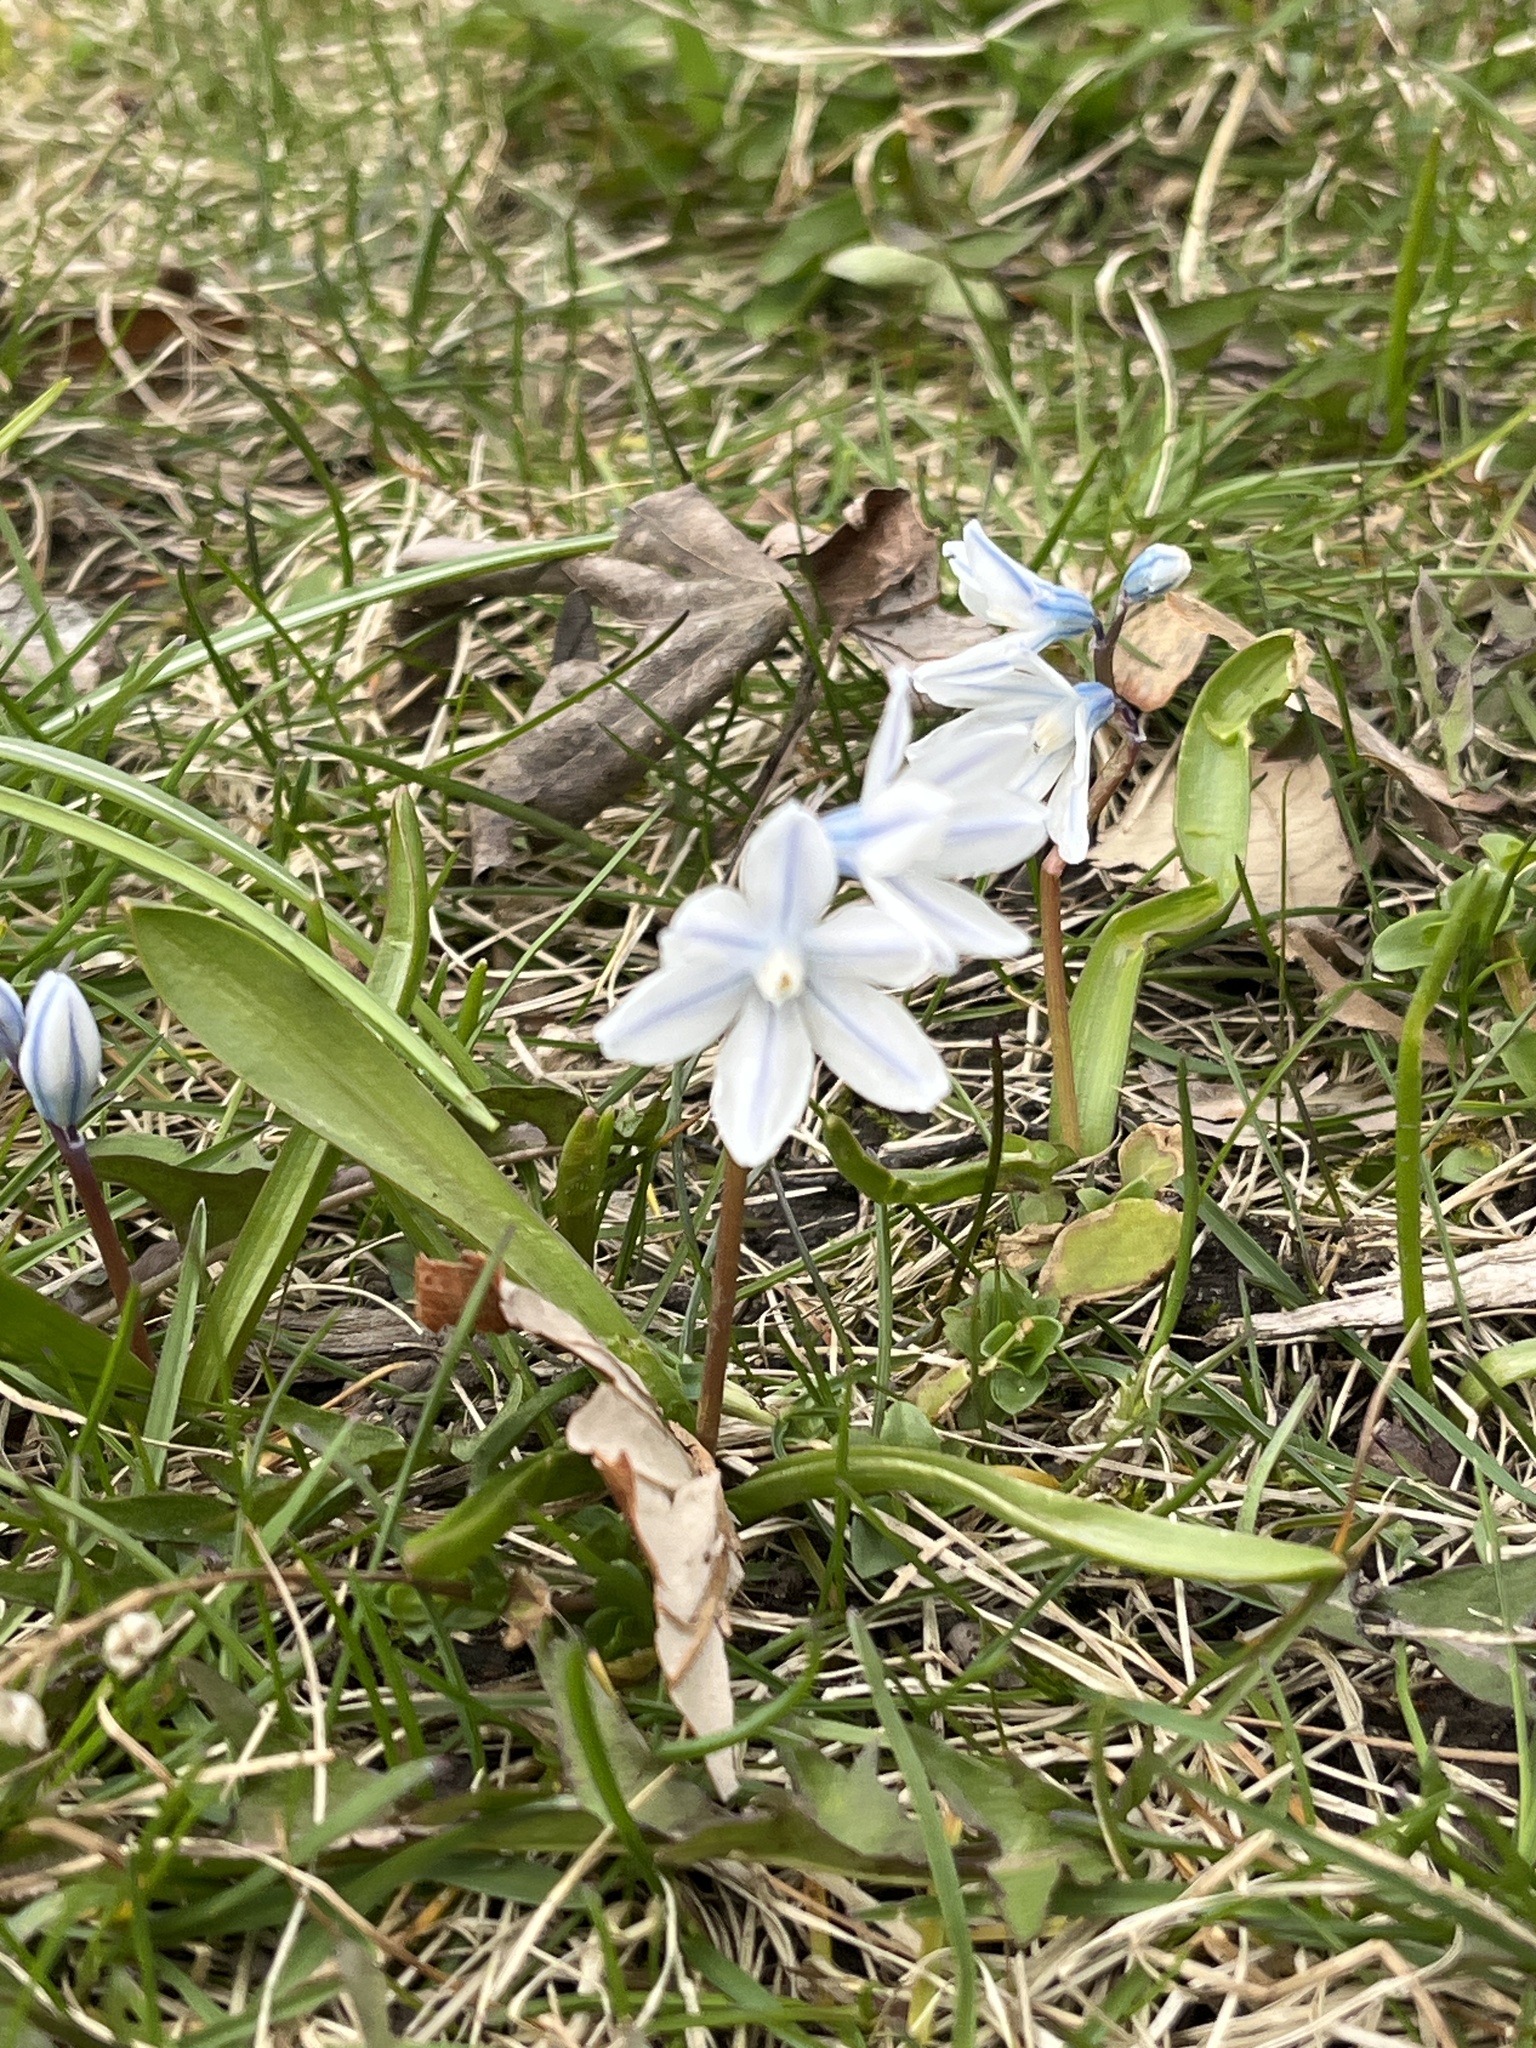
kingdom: Plantae
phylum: Tracheophyta
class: Liliopsida
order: Asparagales
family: Asparagaceae
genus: Puschkinia
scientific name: Puschkinia scilloides
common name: Striped squill
